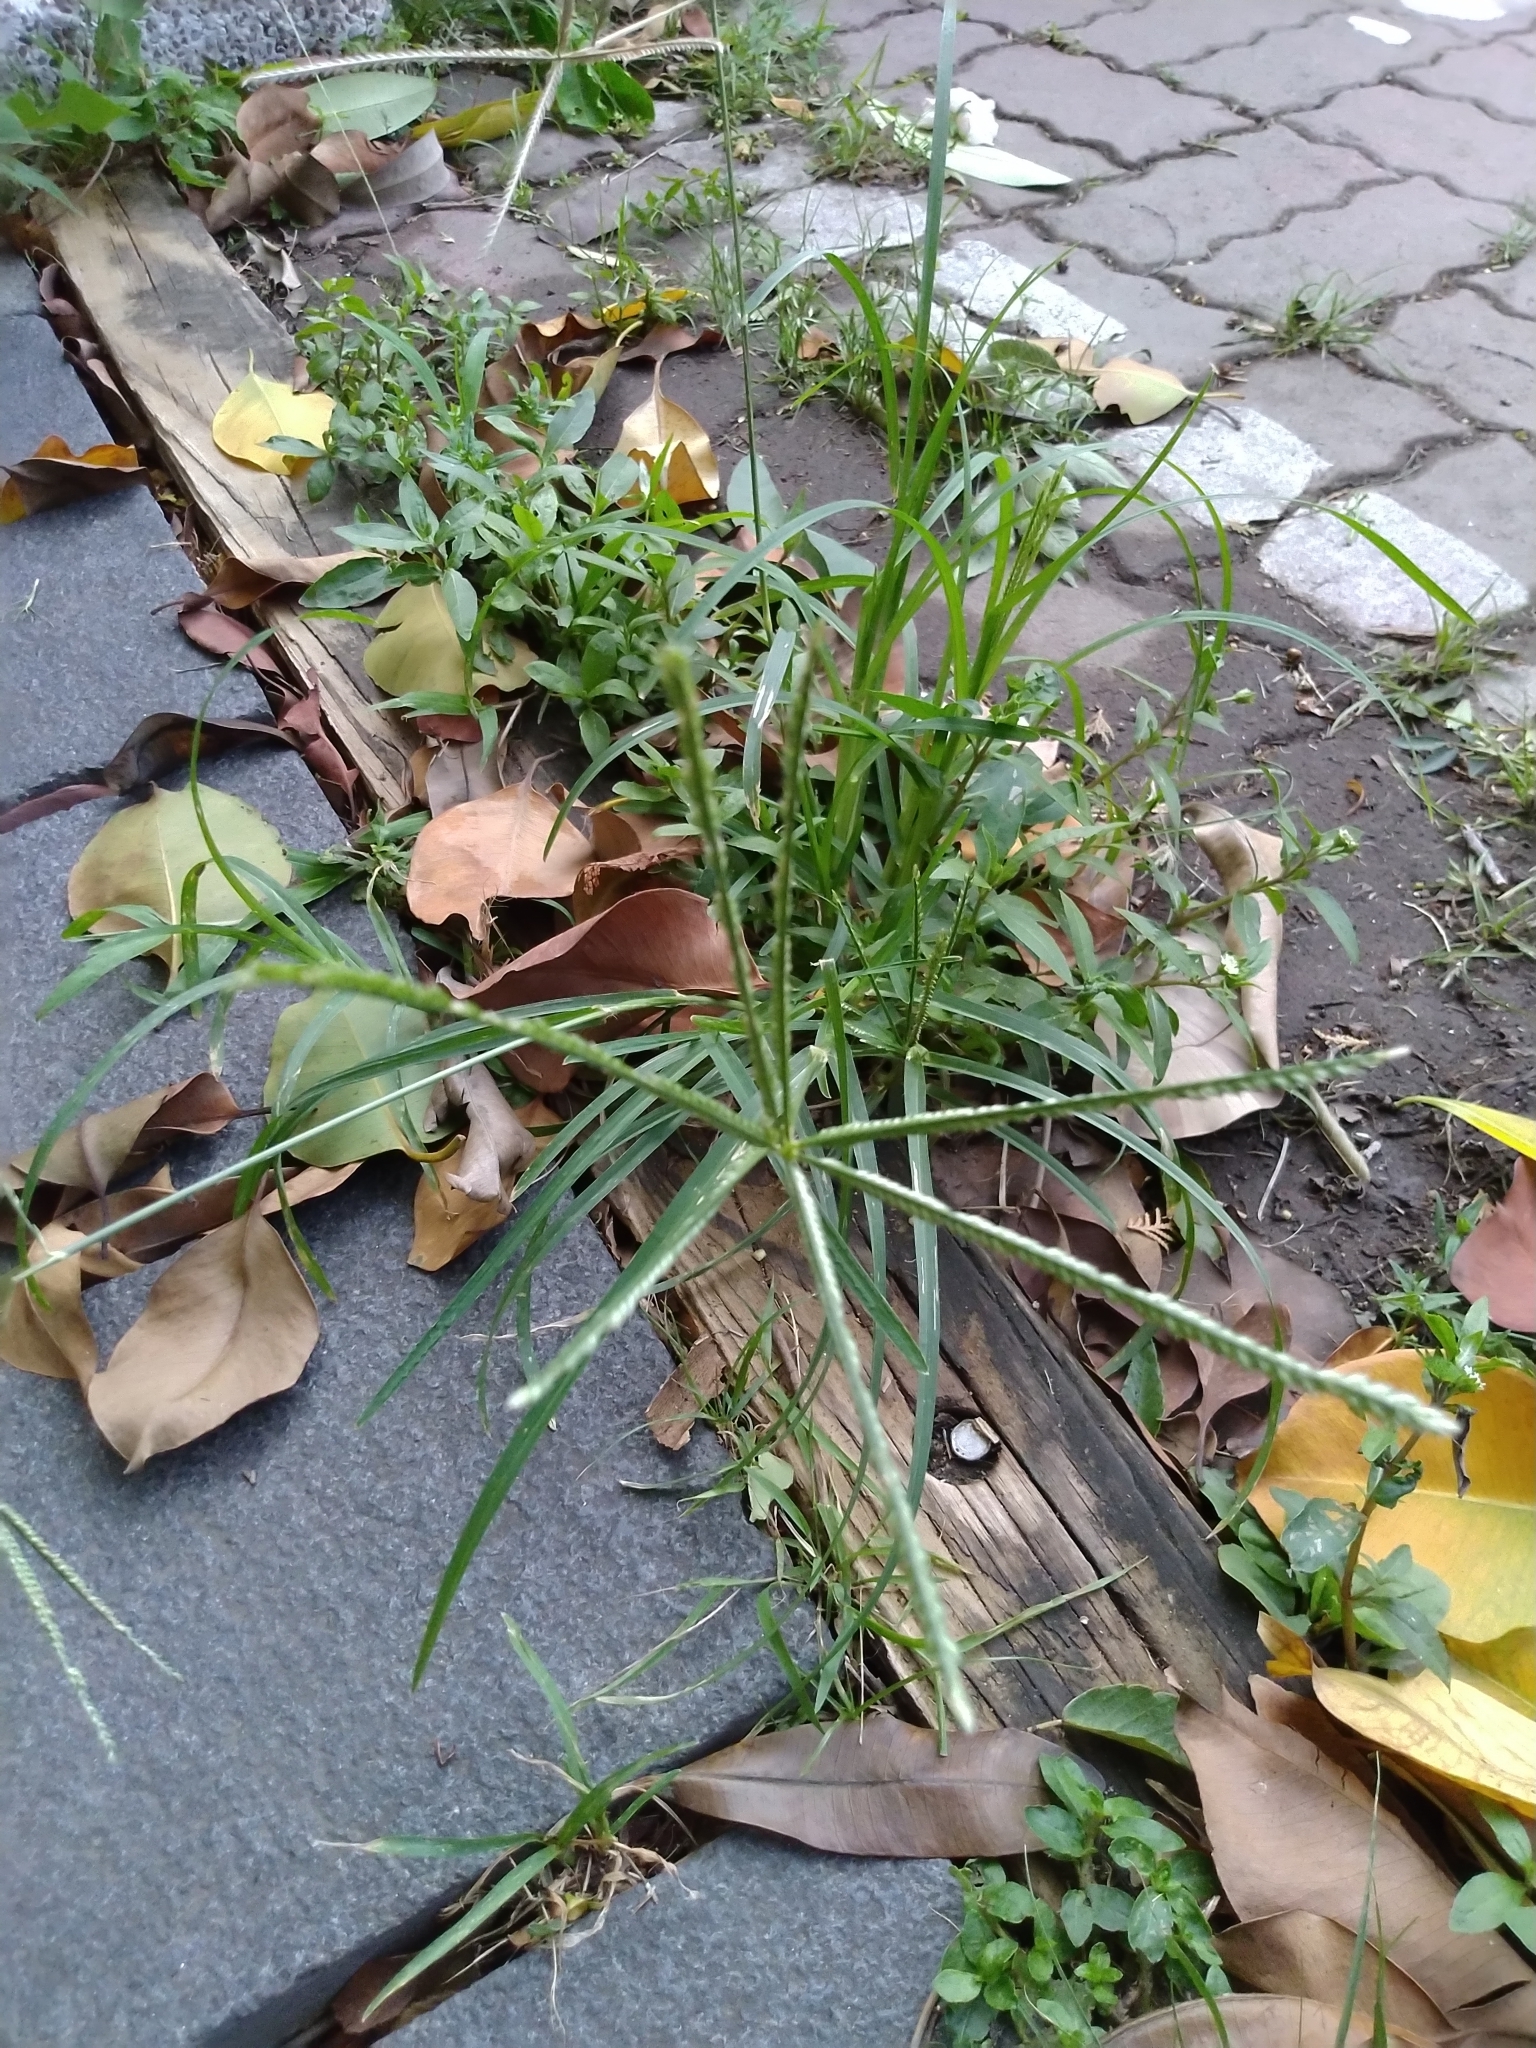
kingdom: Plantae
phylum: Tracheophyta
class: Liliopsida
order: Poales
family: Poaceae
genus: Eleusine
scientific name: Eleusine indica
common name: Yard-grass
